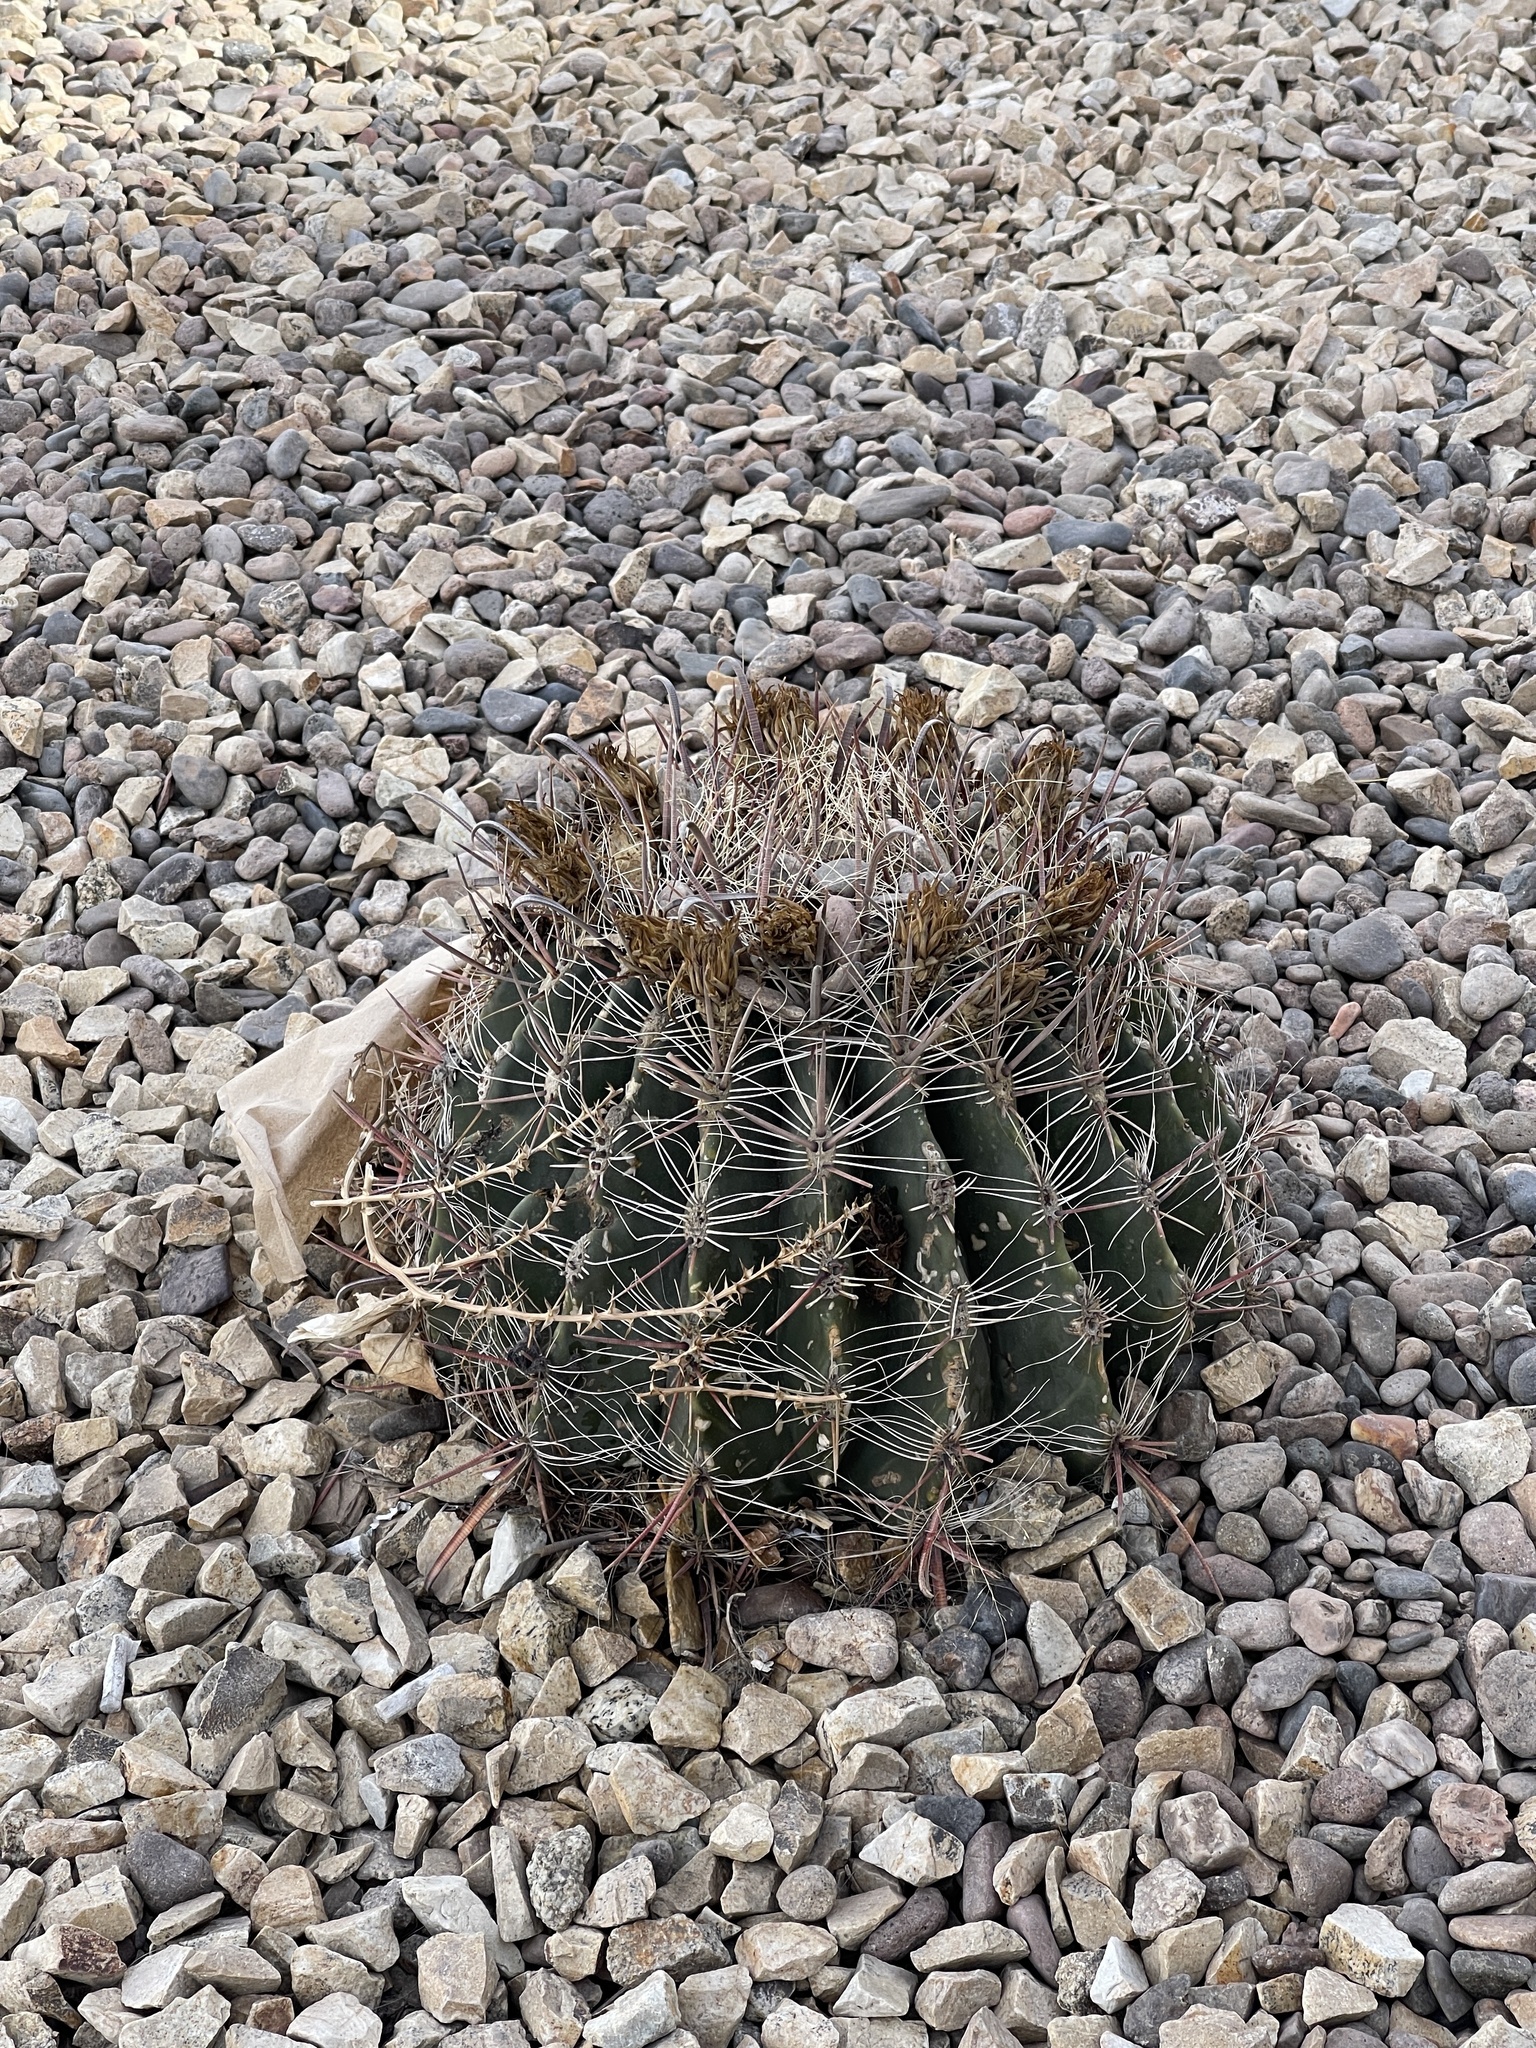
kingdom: Plantae
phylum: Tracheophyta
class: Magnoliopsida
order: Caryophyllales
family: Cactaceae
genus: Ferocactus
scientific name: Ferocactus wislizeni
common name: Candy barrel cactus
